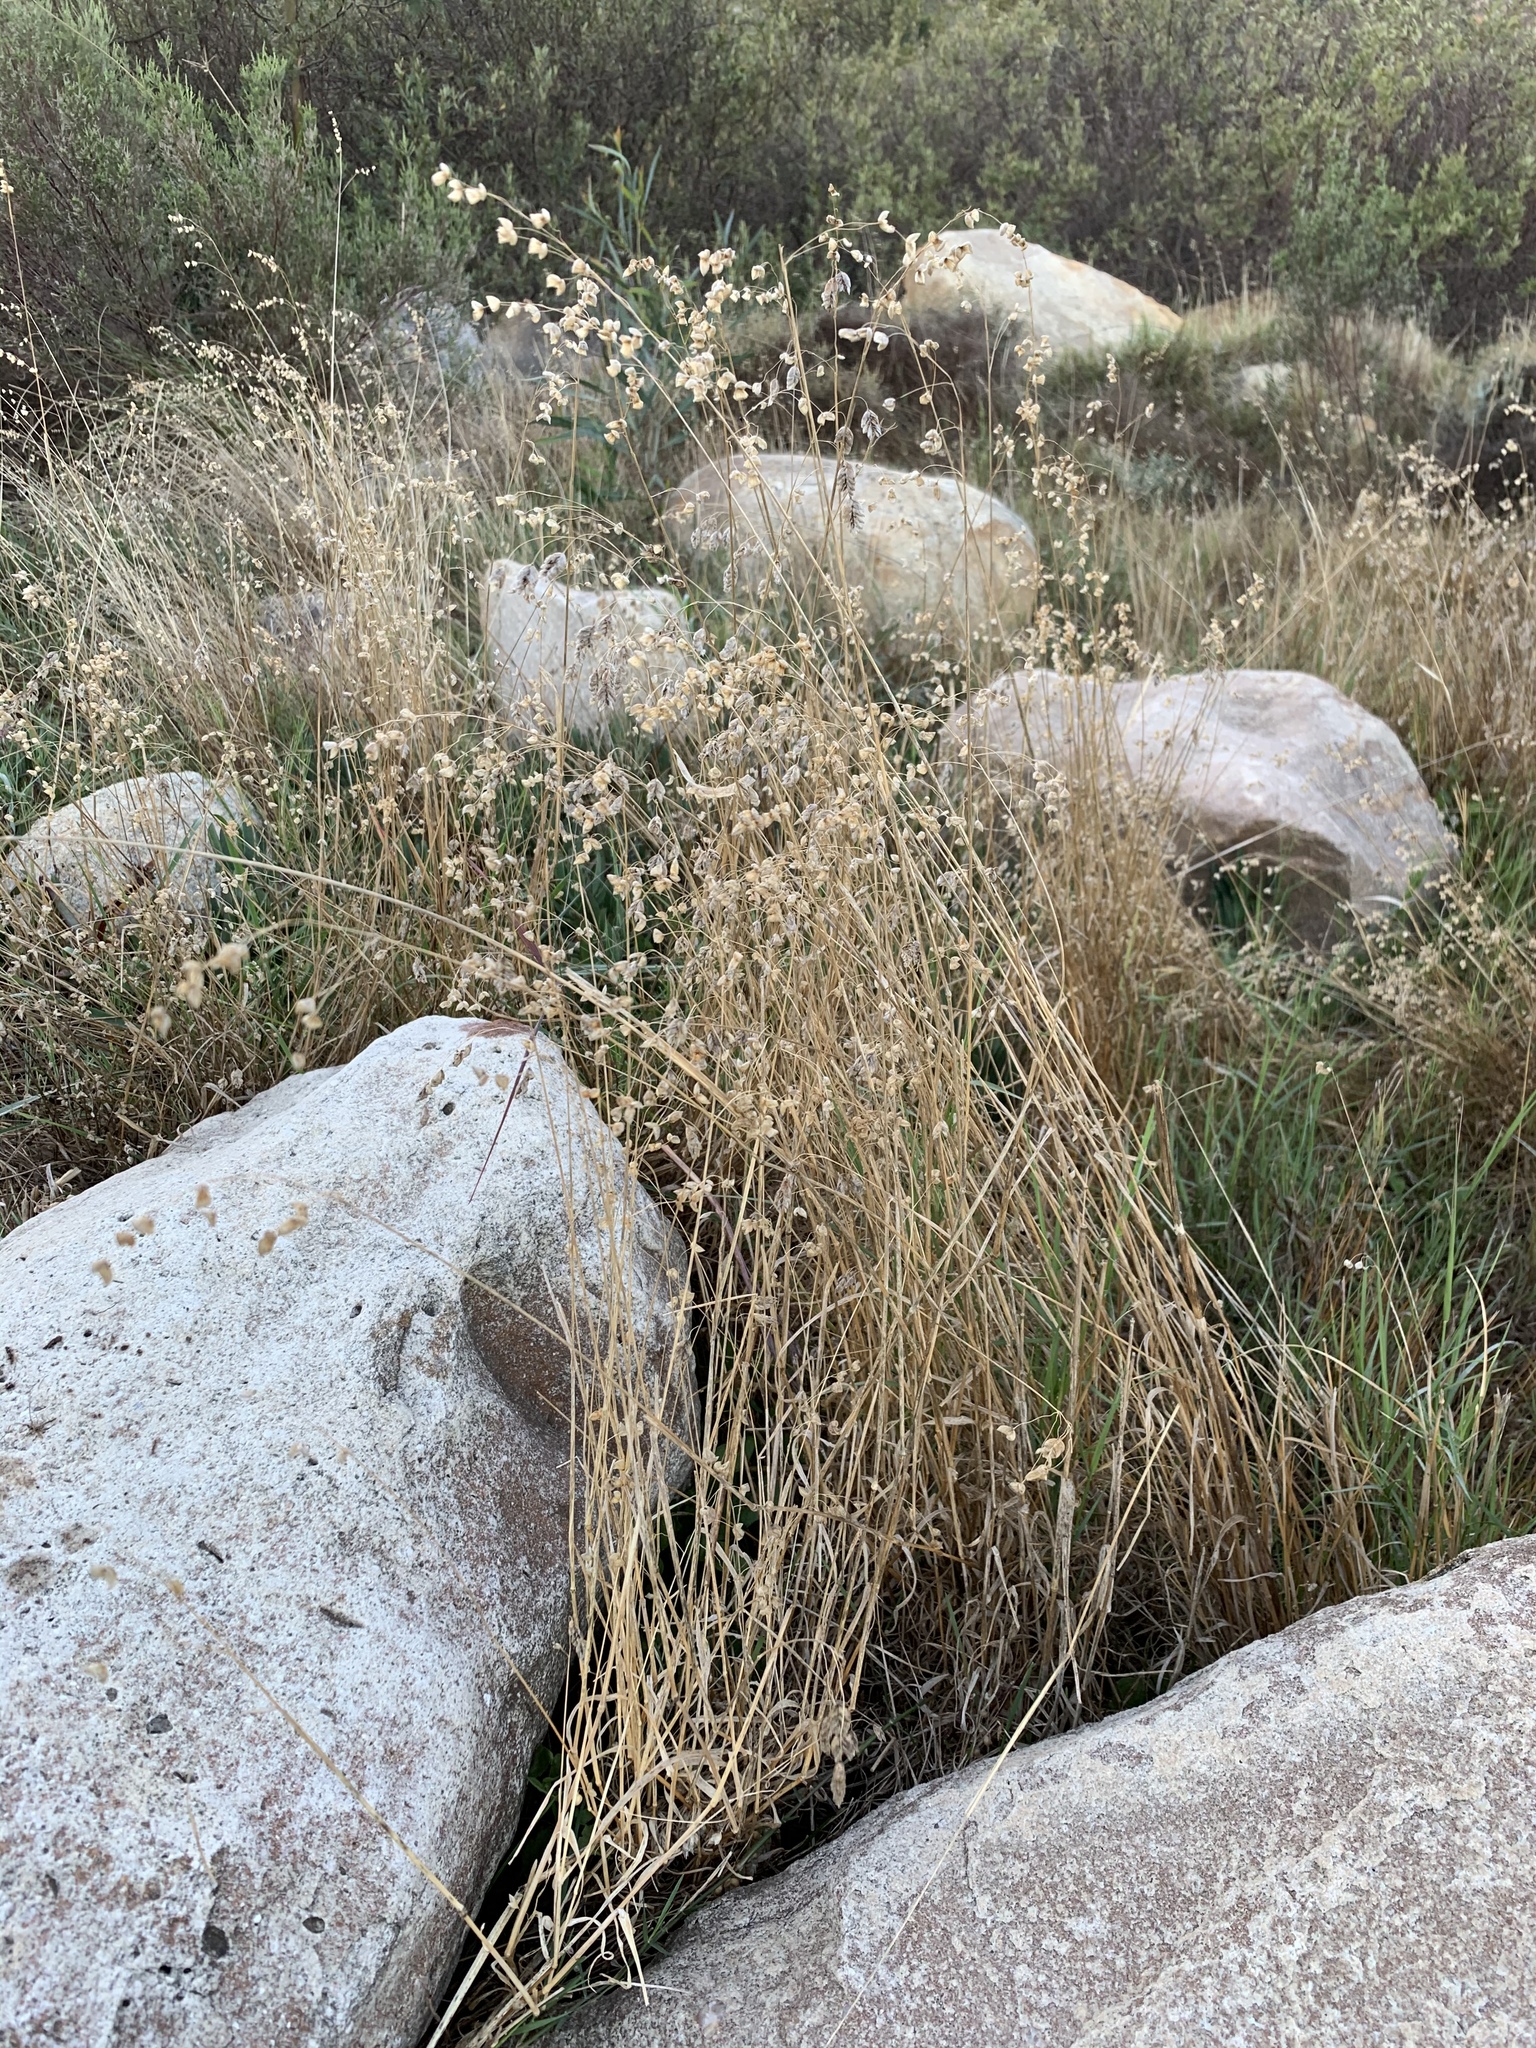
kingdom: Plantae
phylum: Tracheophyta
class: Liliopsida
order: Poales
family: Poaceae
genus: Briza
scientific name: Briza maxima
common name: Big quakinggrass
